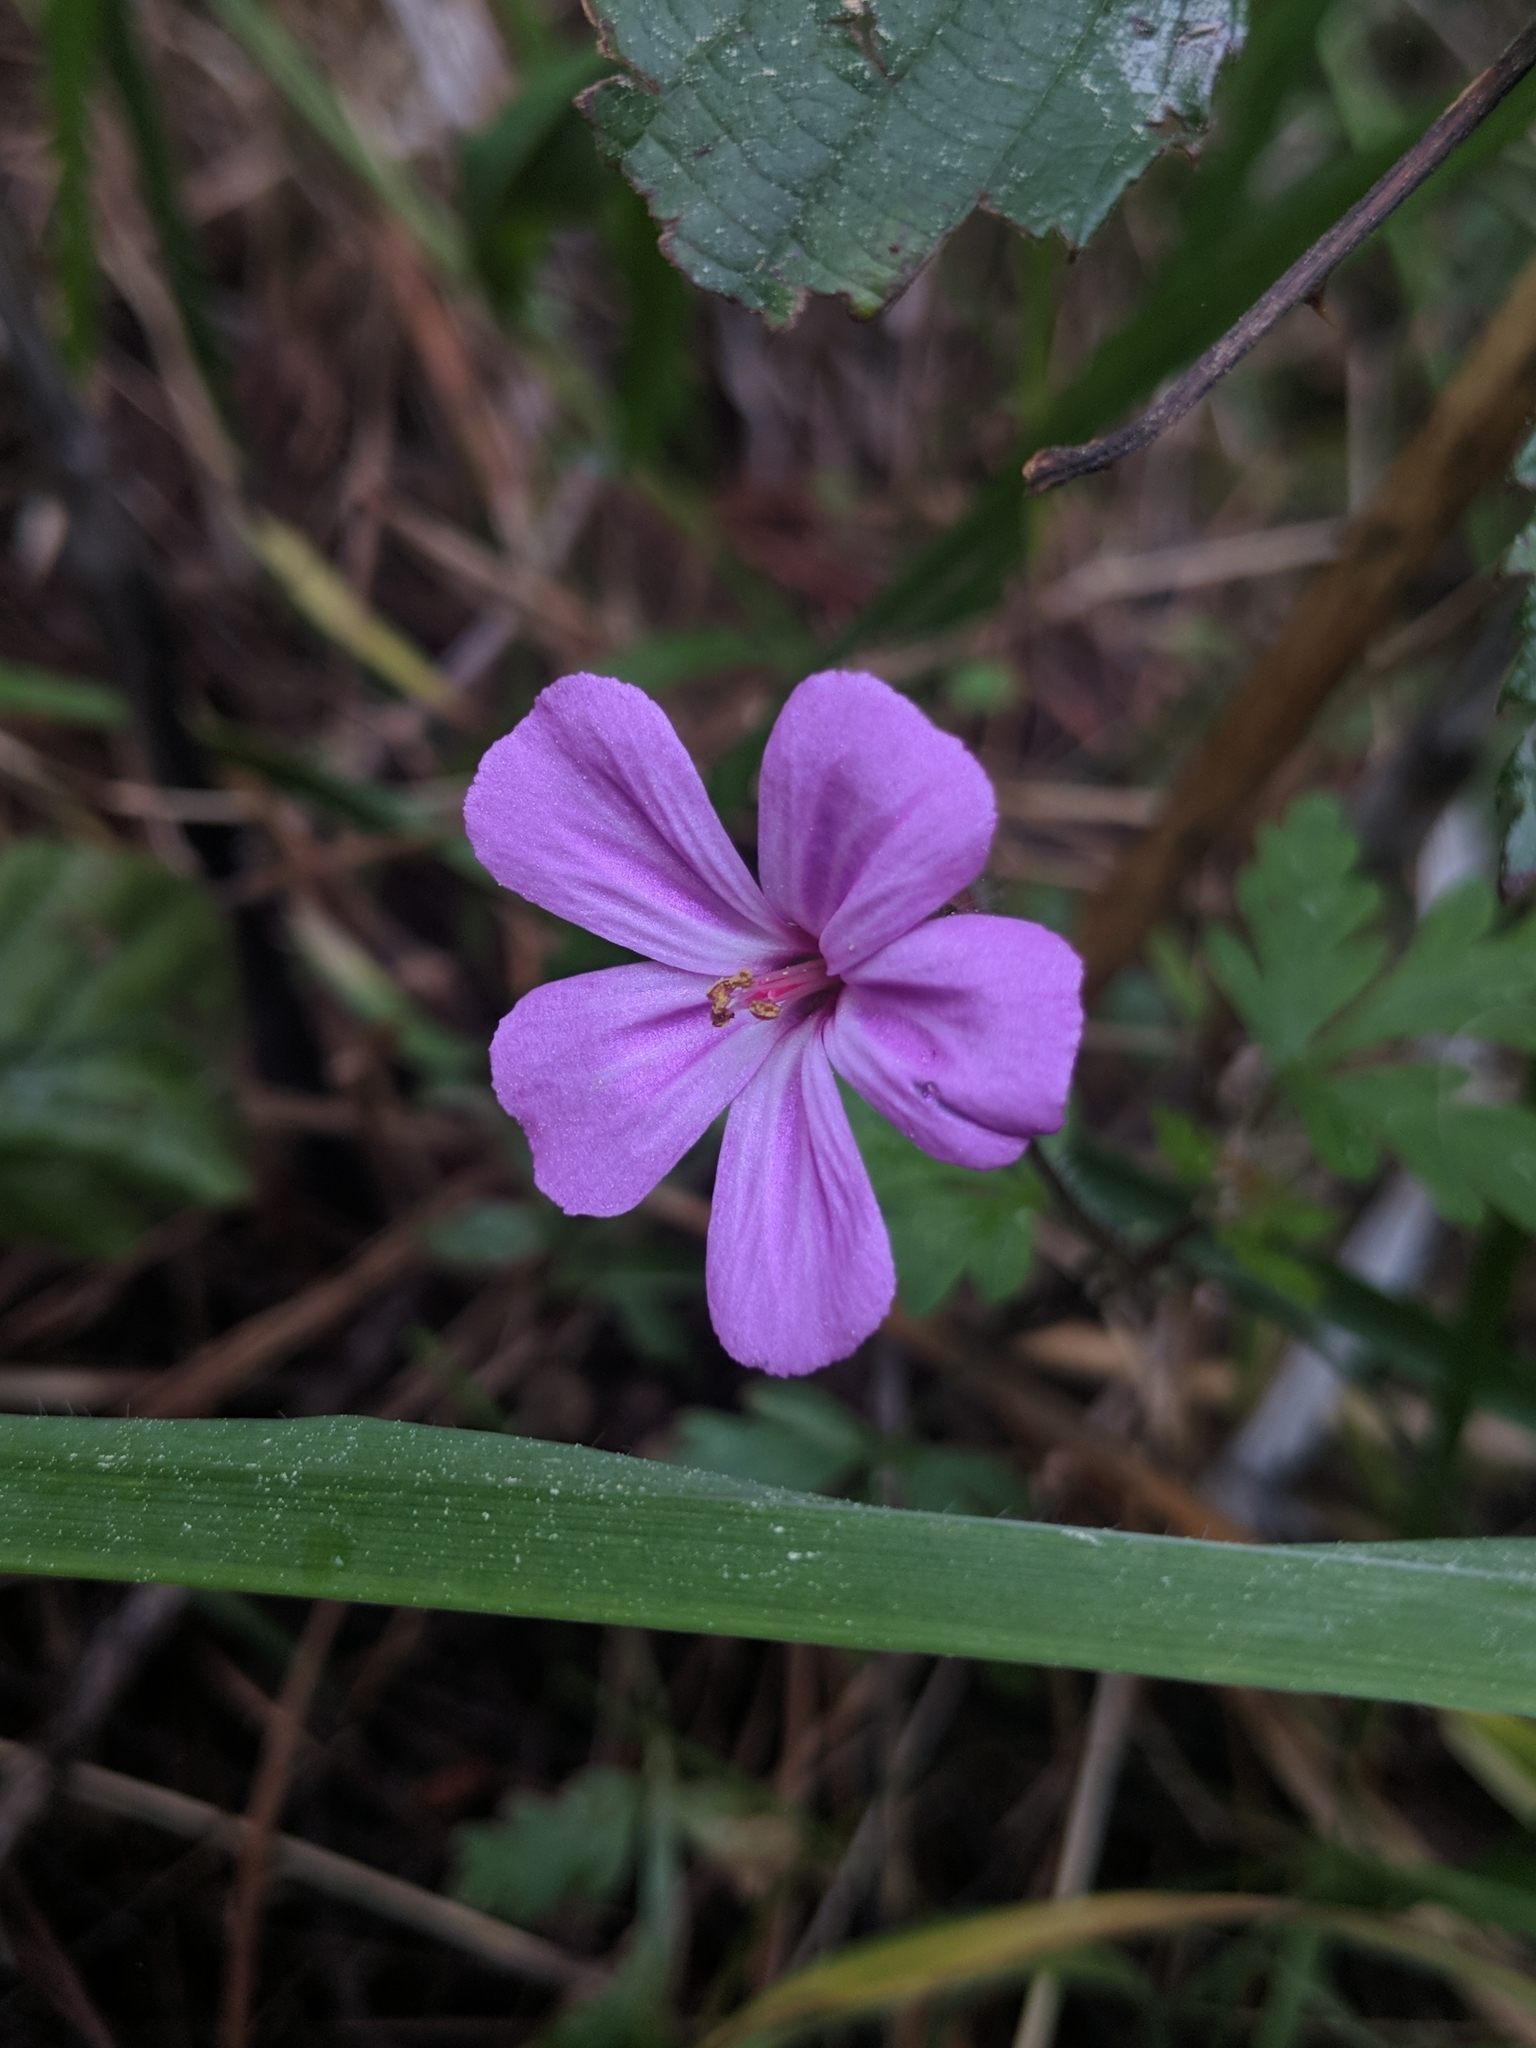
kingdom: Plantae
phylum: Tracheophyta
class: Magnoliopsida
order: Geraniales
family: Geraniaceae
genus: Geranium
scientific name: Geranium yeoi
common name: Greater herb robert
